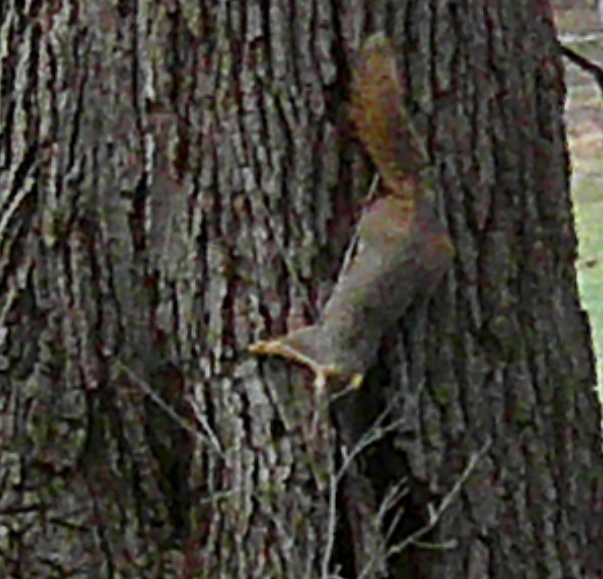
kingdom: Animalia
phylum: Chordata
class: Mammalia
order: Rodentia
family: Sciuridae
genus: Sciurus
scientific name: Sciurus niger
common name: Fox squirrel
